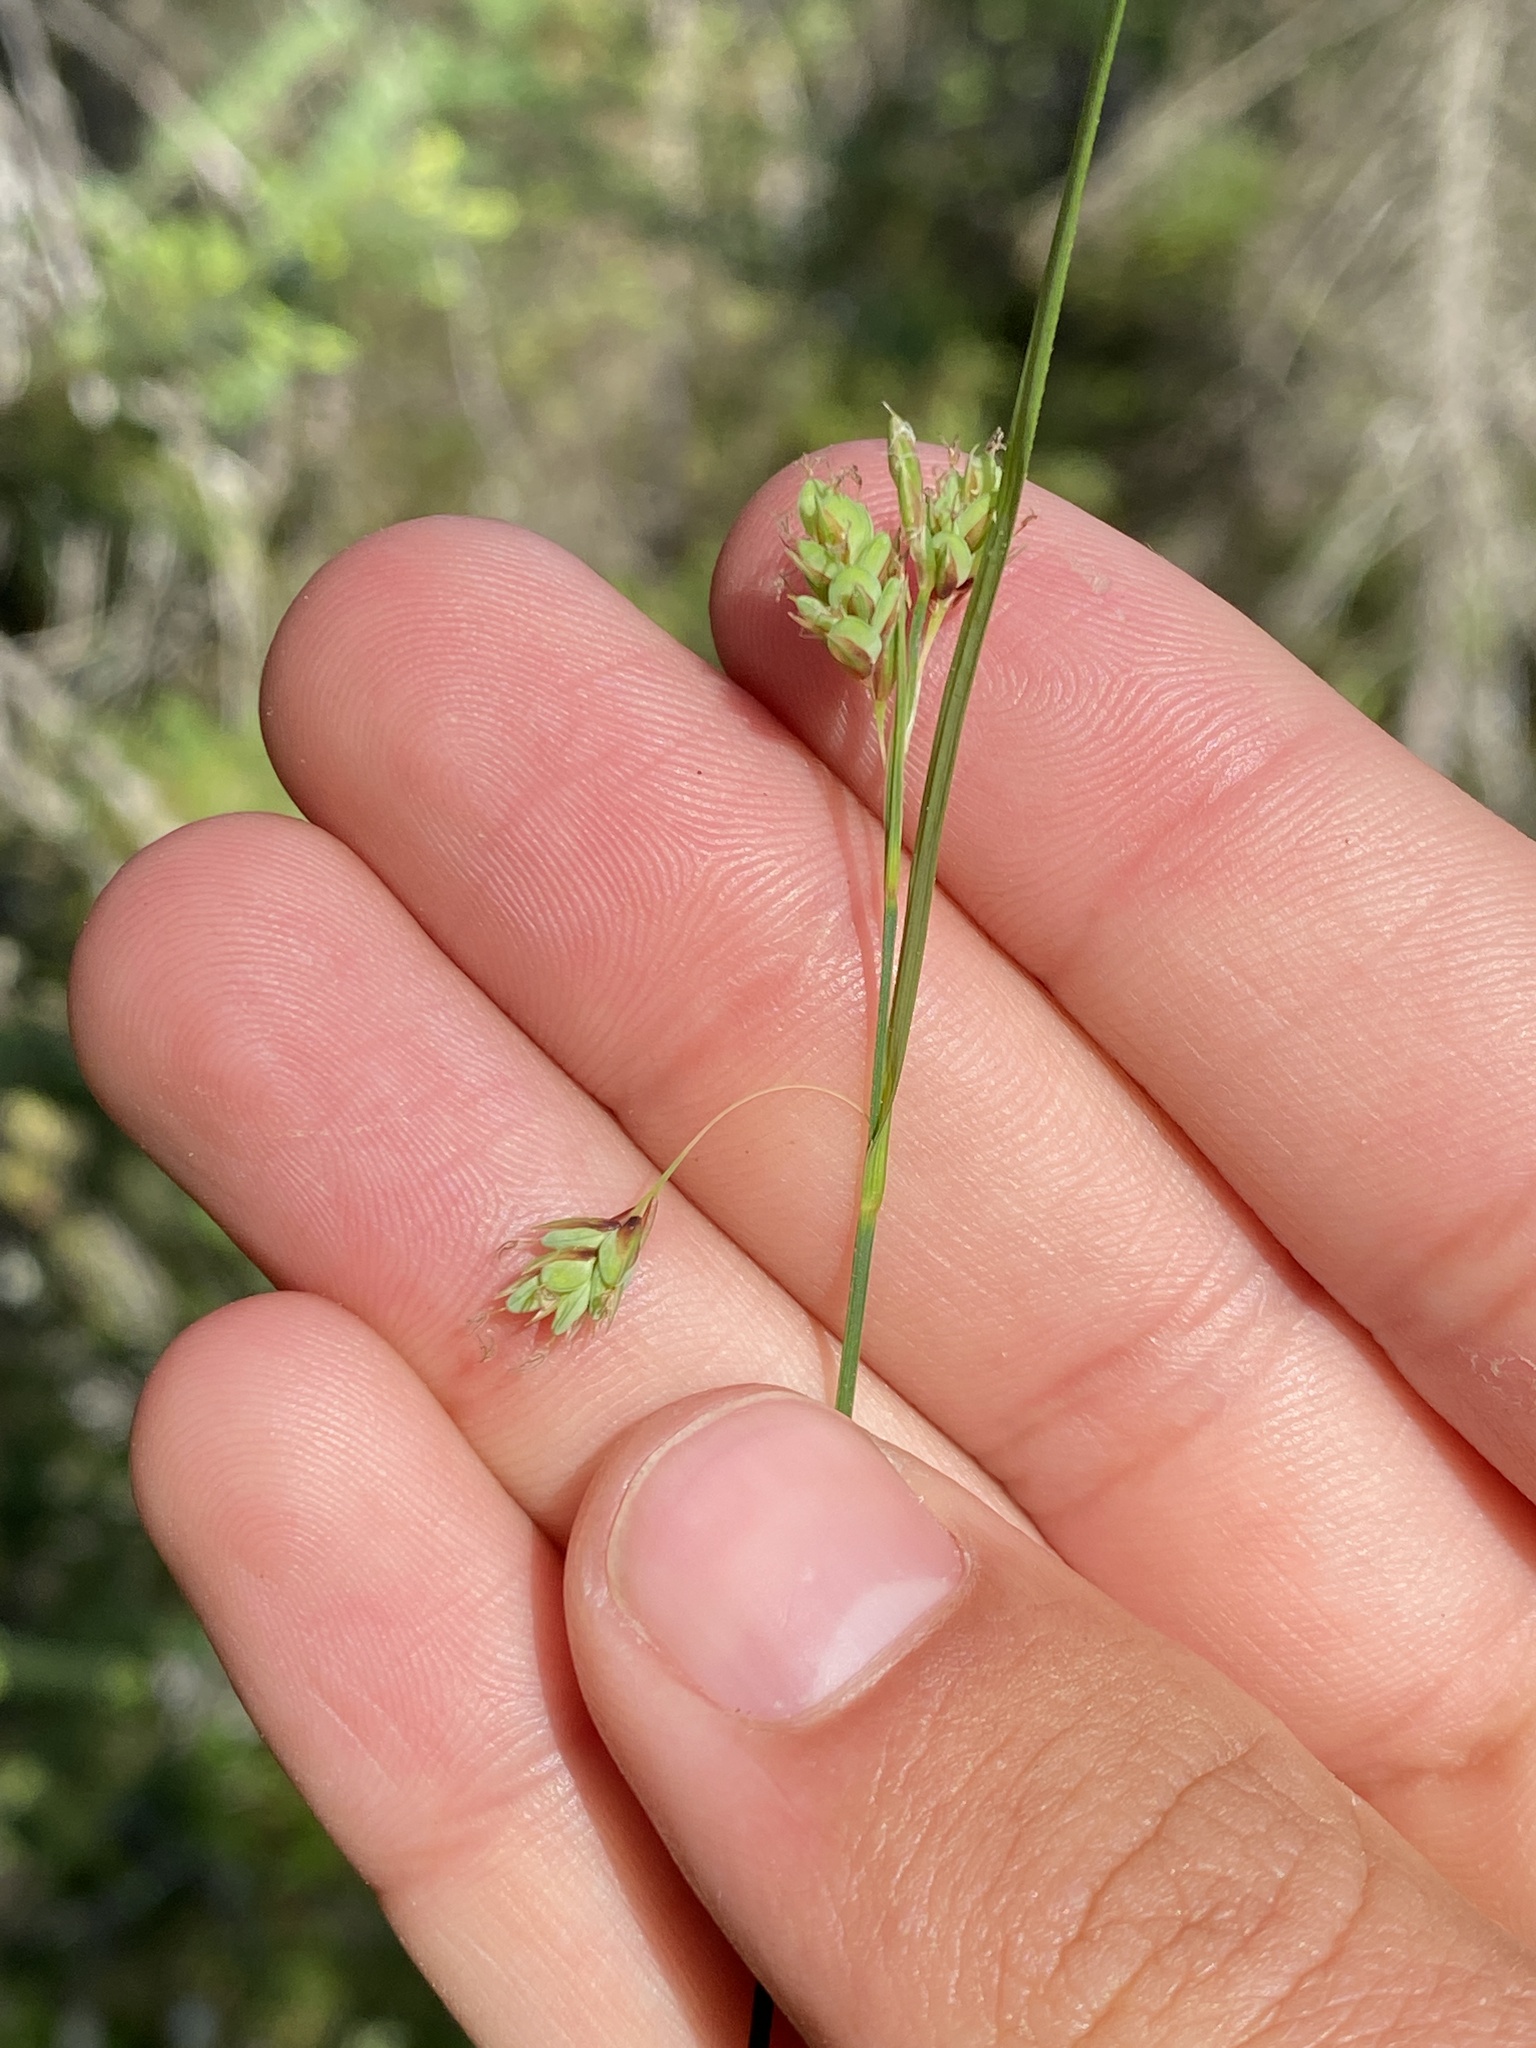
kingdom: Plantae
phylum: Tracheophyta
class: Liliopsida
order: Poales
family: Cyperaceae
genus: Carex
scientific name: Carex magellanica
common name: Bog sedge
